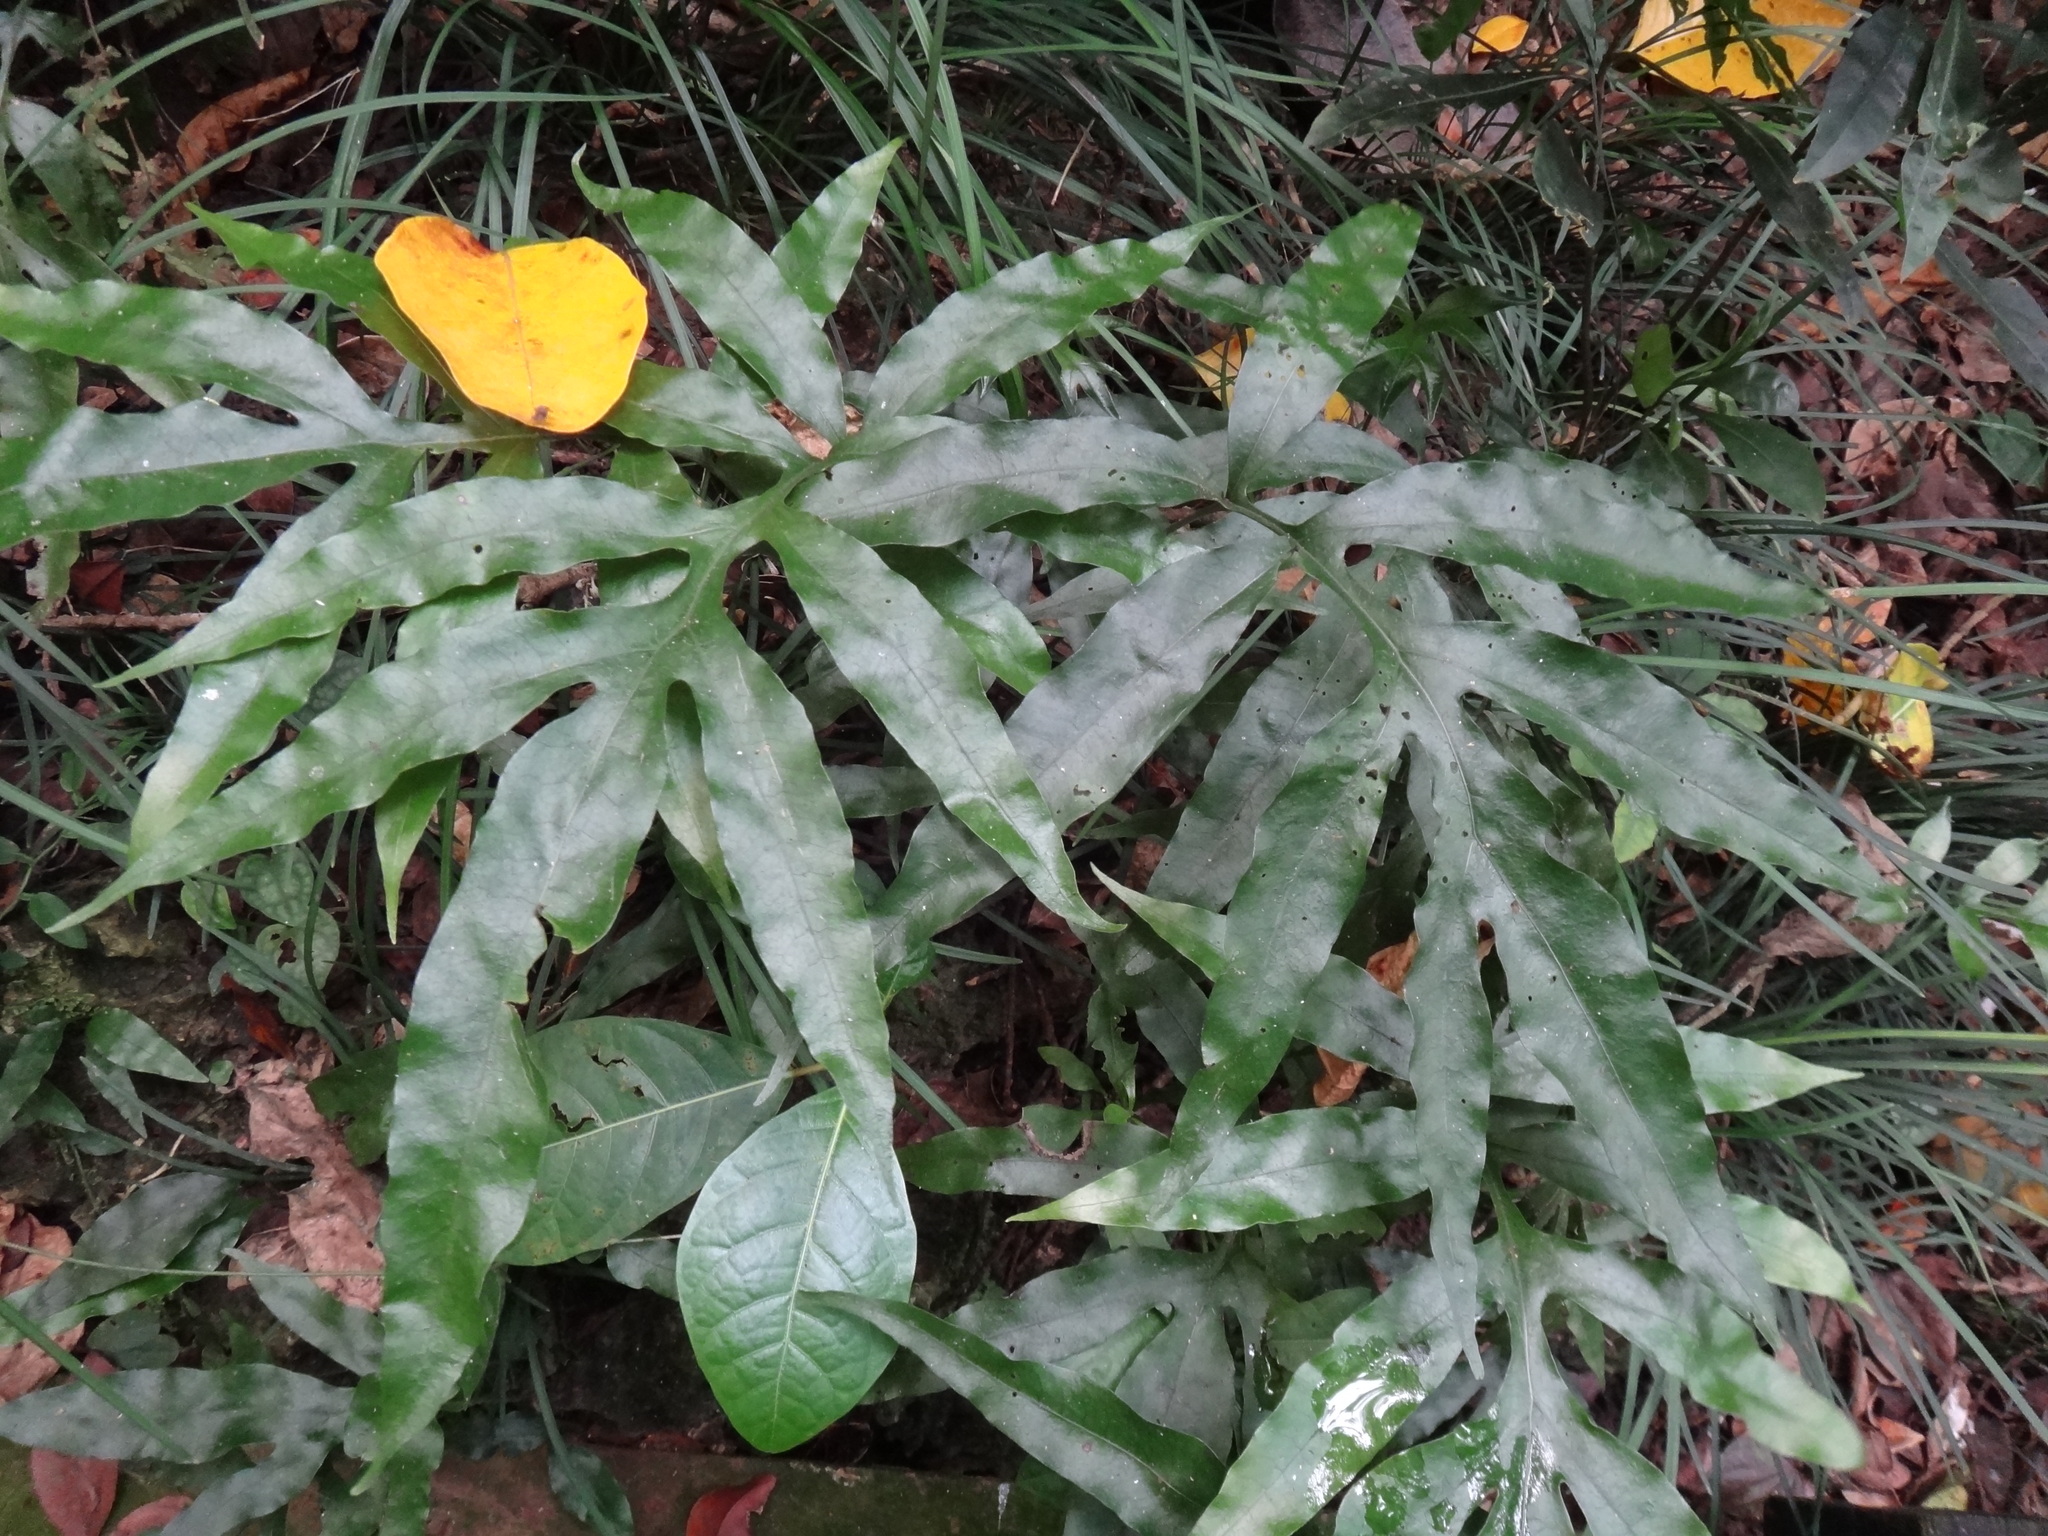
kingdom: Plantae
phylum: Tracheophyta
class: Polypodiopsida
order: Polypodiales
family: Polypodiaceae
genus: Leptochilus
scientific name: Leptochilus ellipticus
